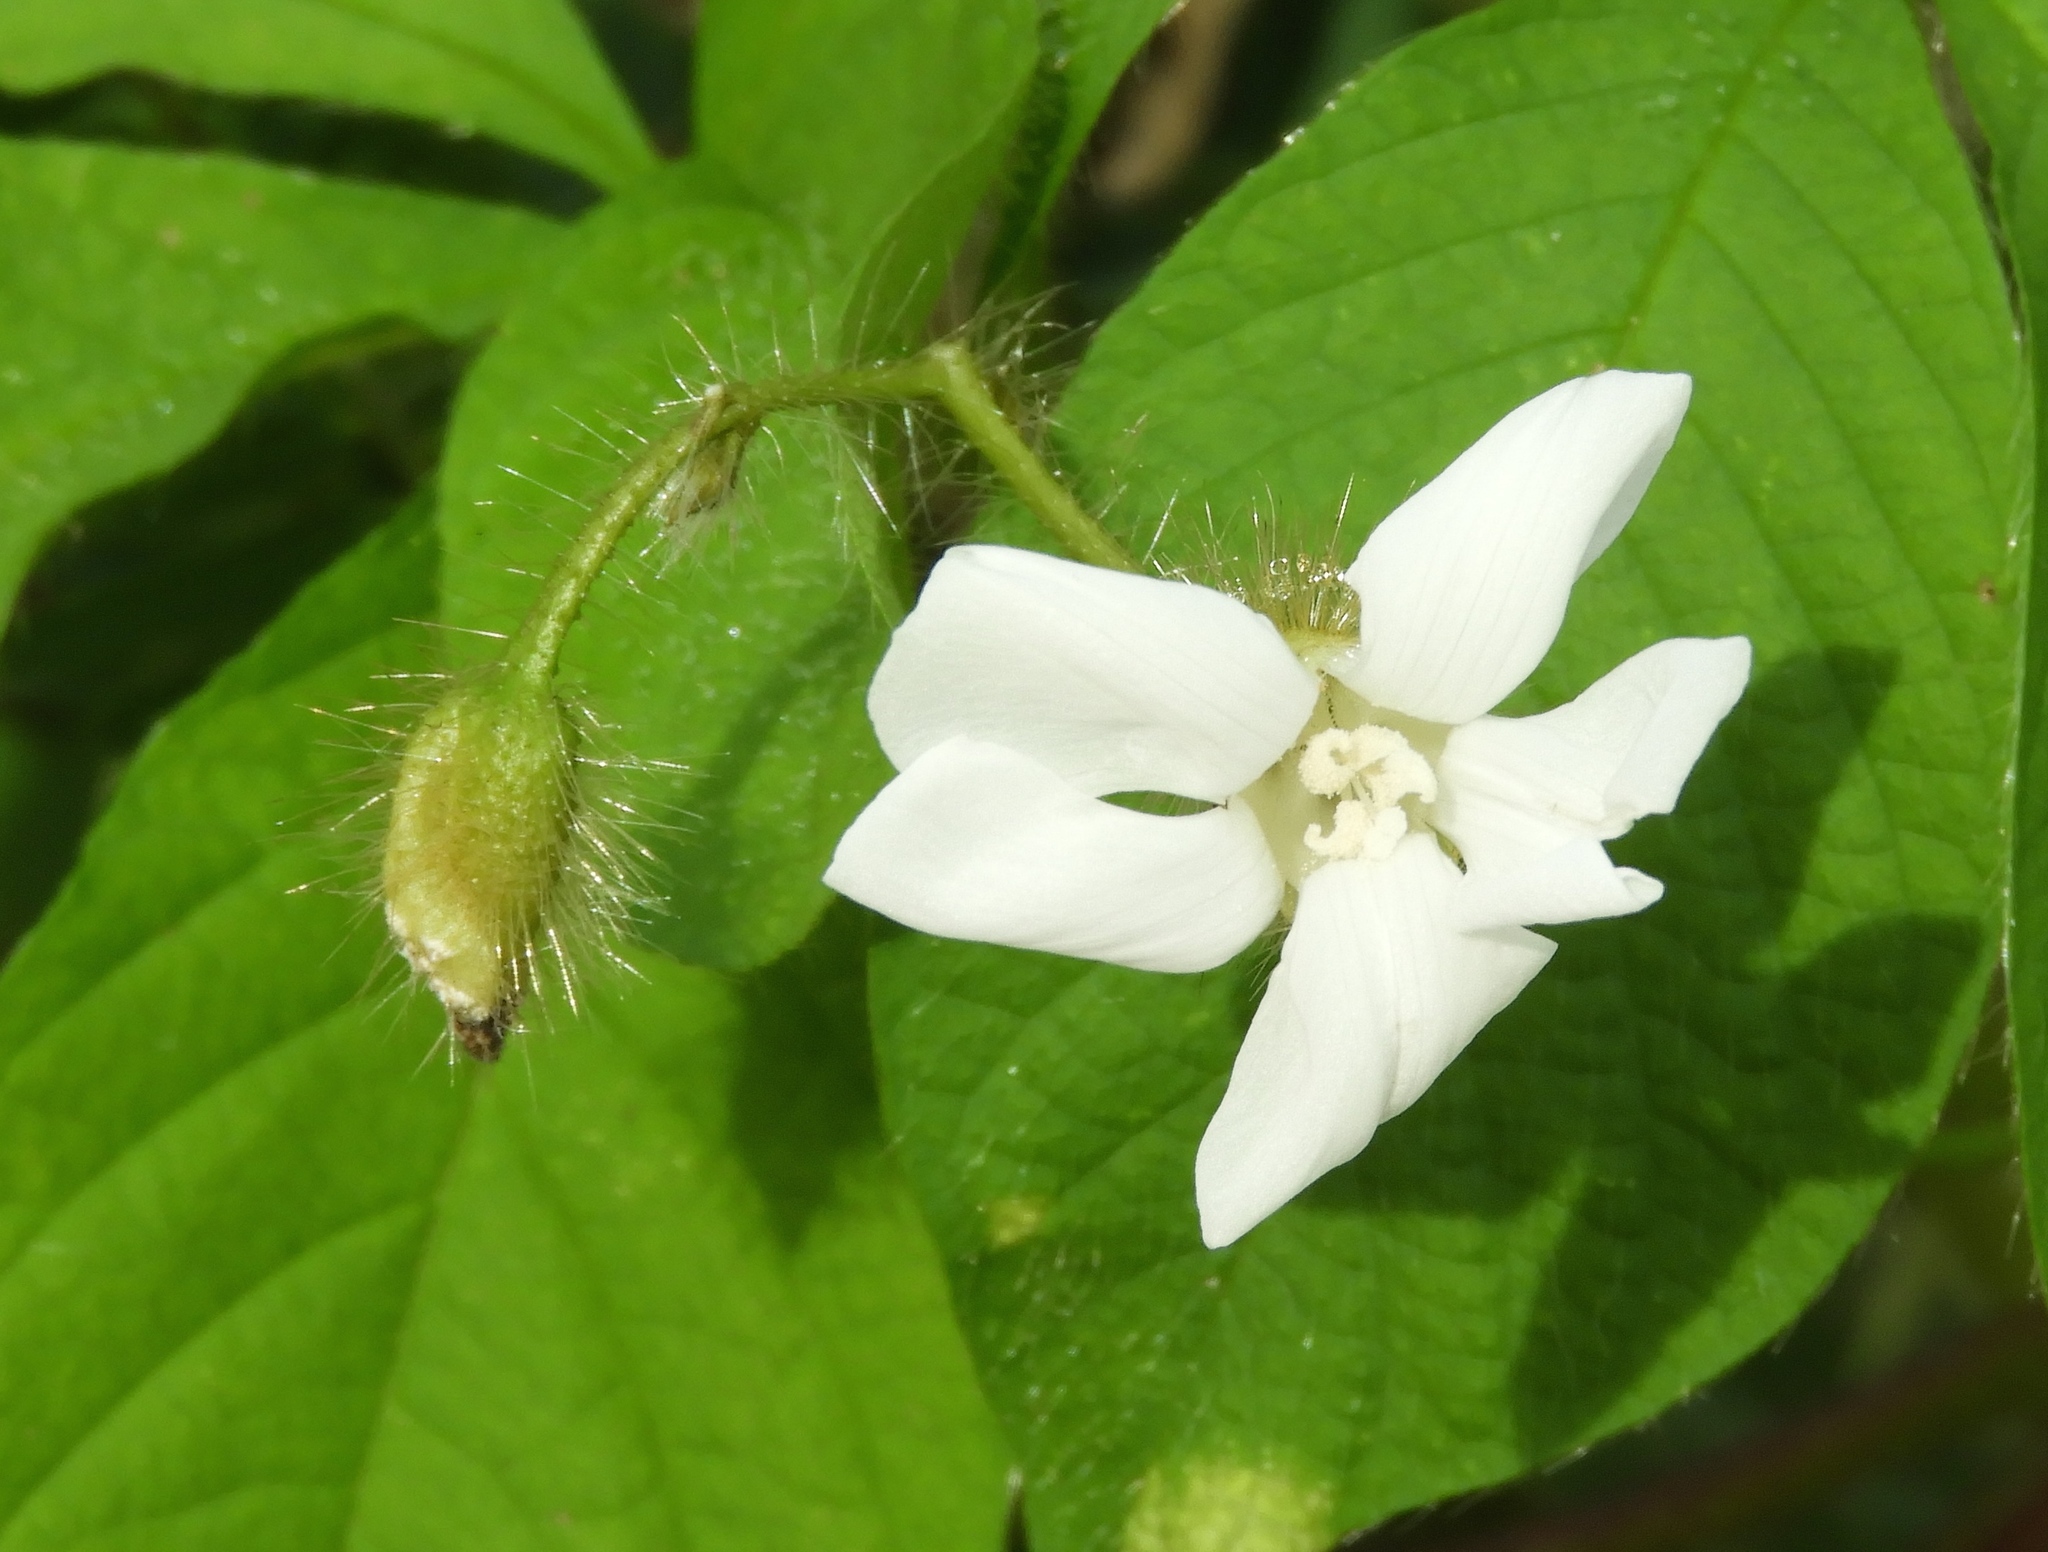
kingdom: Plantae
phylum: Tracheophyta
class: Magnoliopsida
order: Solanales
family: Convolvulaceae
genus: Distimake
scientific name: Distimake aegyptius
